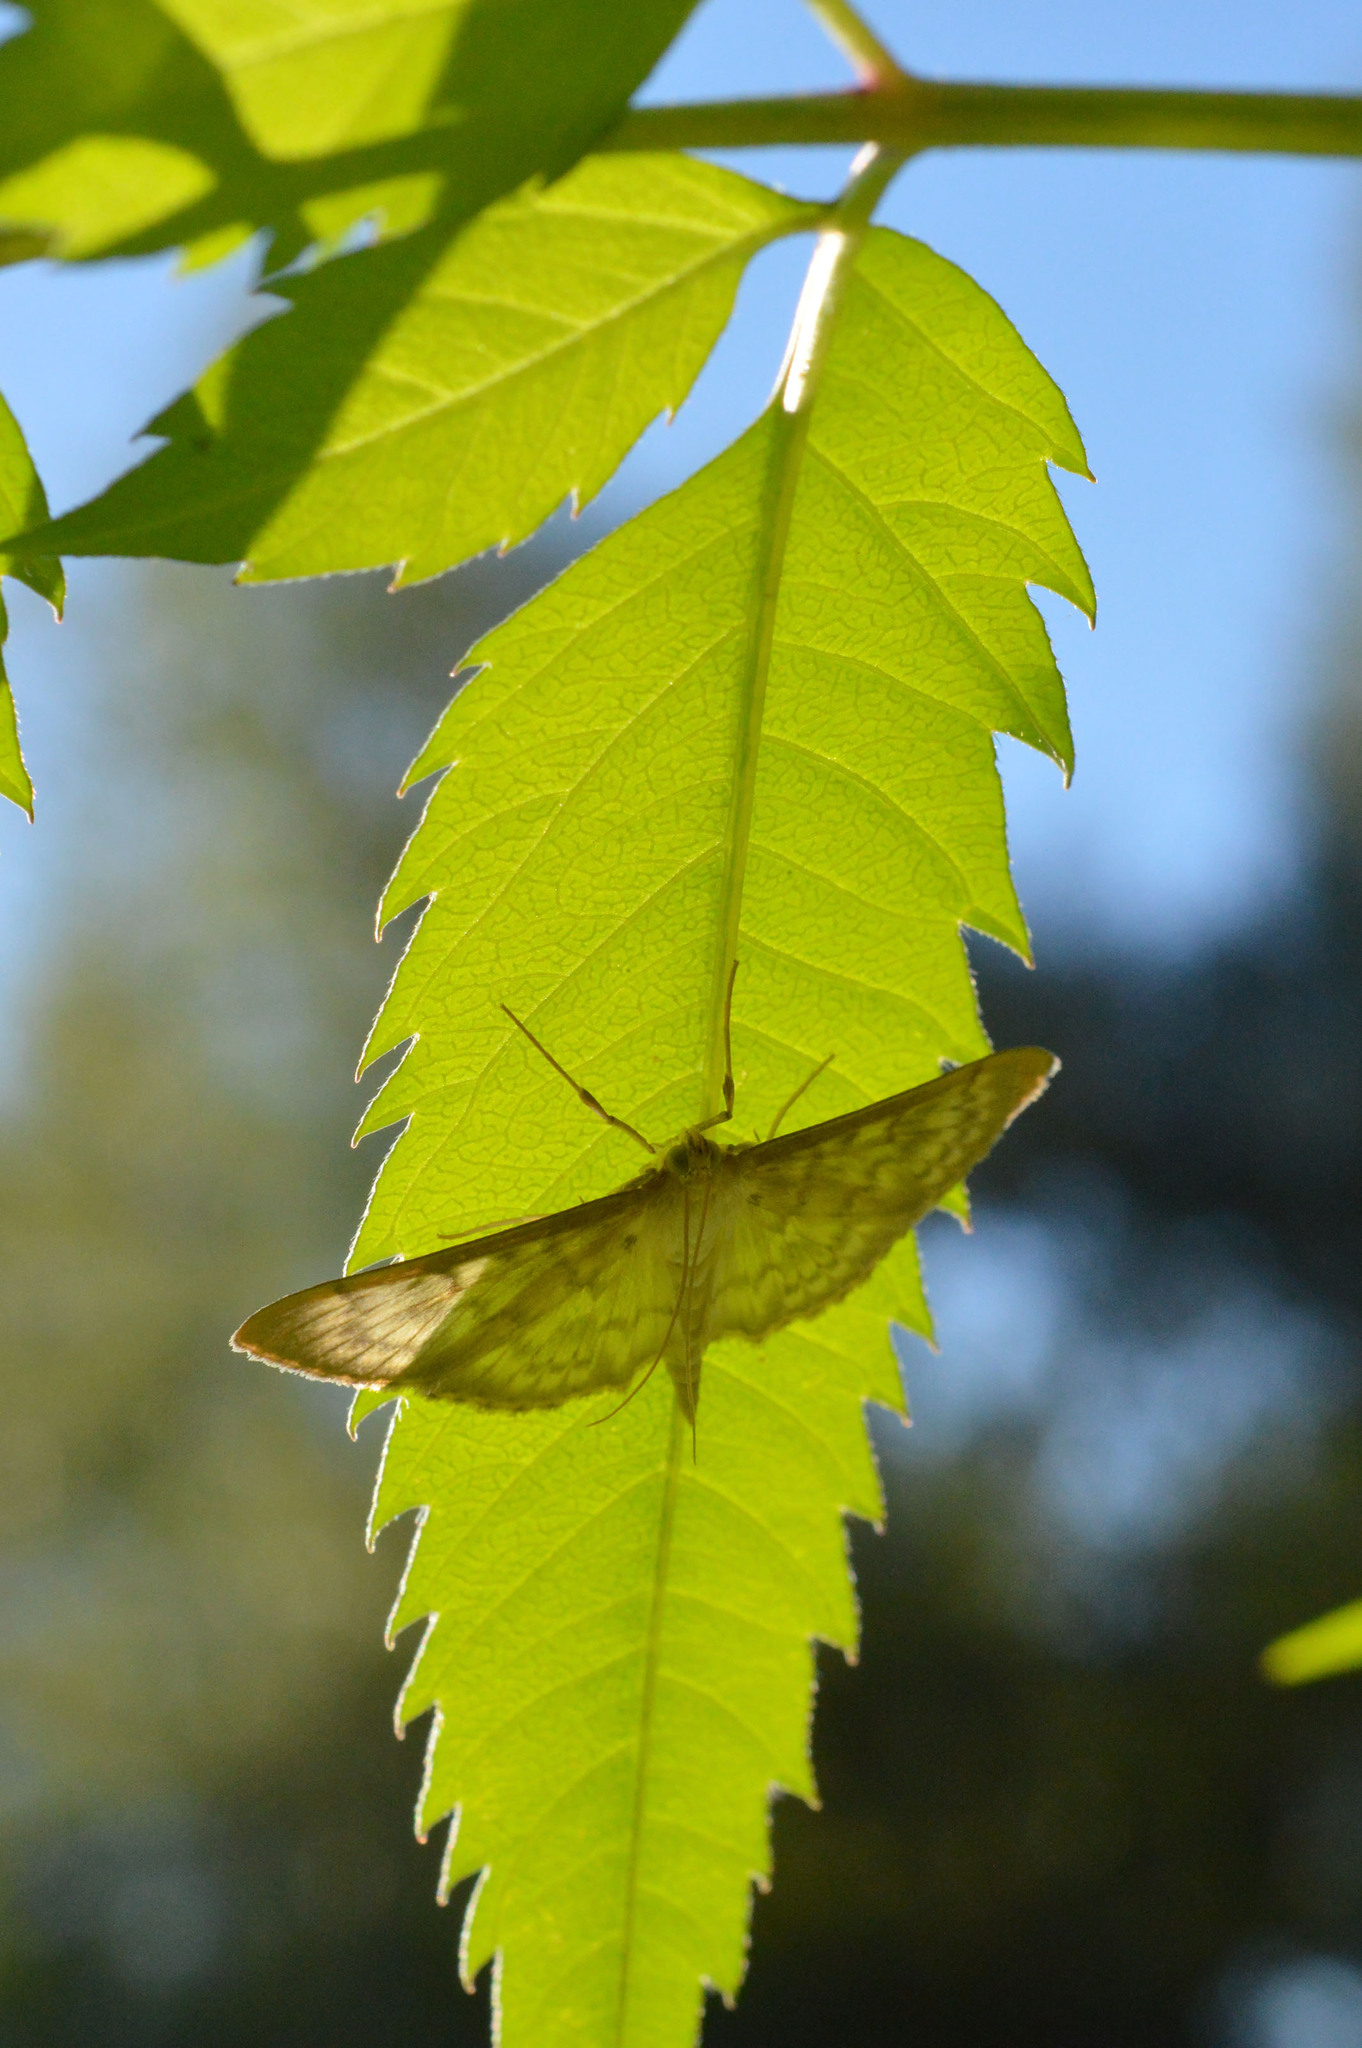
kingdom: Animalia
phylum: Arthropoda
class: Insecta
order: Lepidoptera
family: Crambidae
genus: Patania
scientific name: Patania ruralis
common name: Mother of pearl
